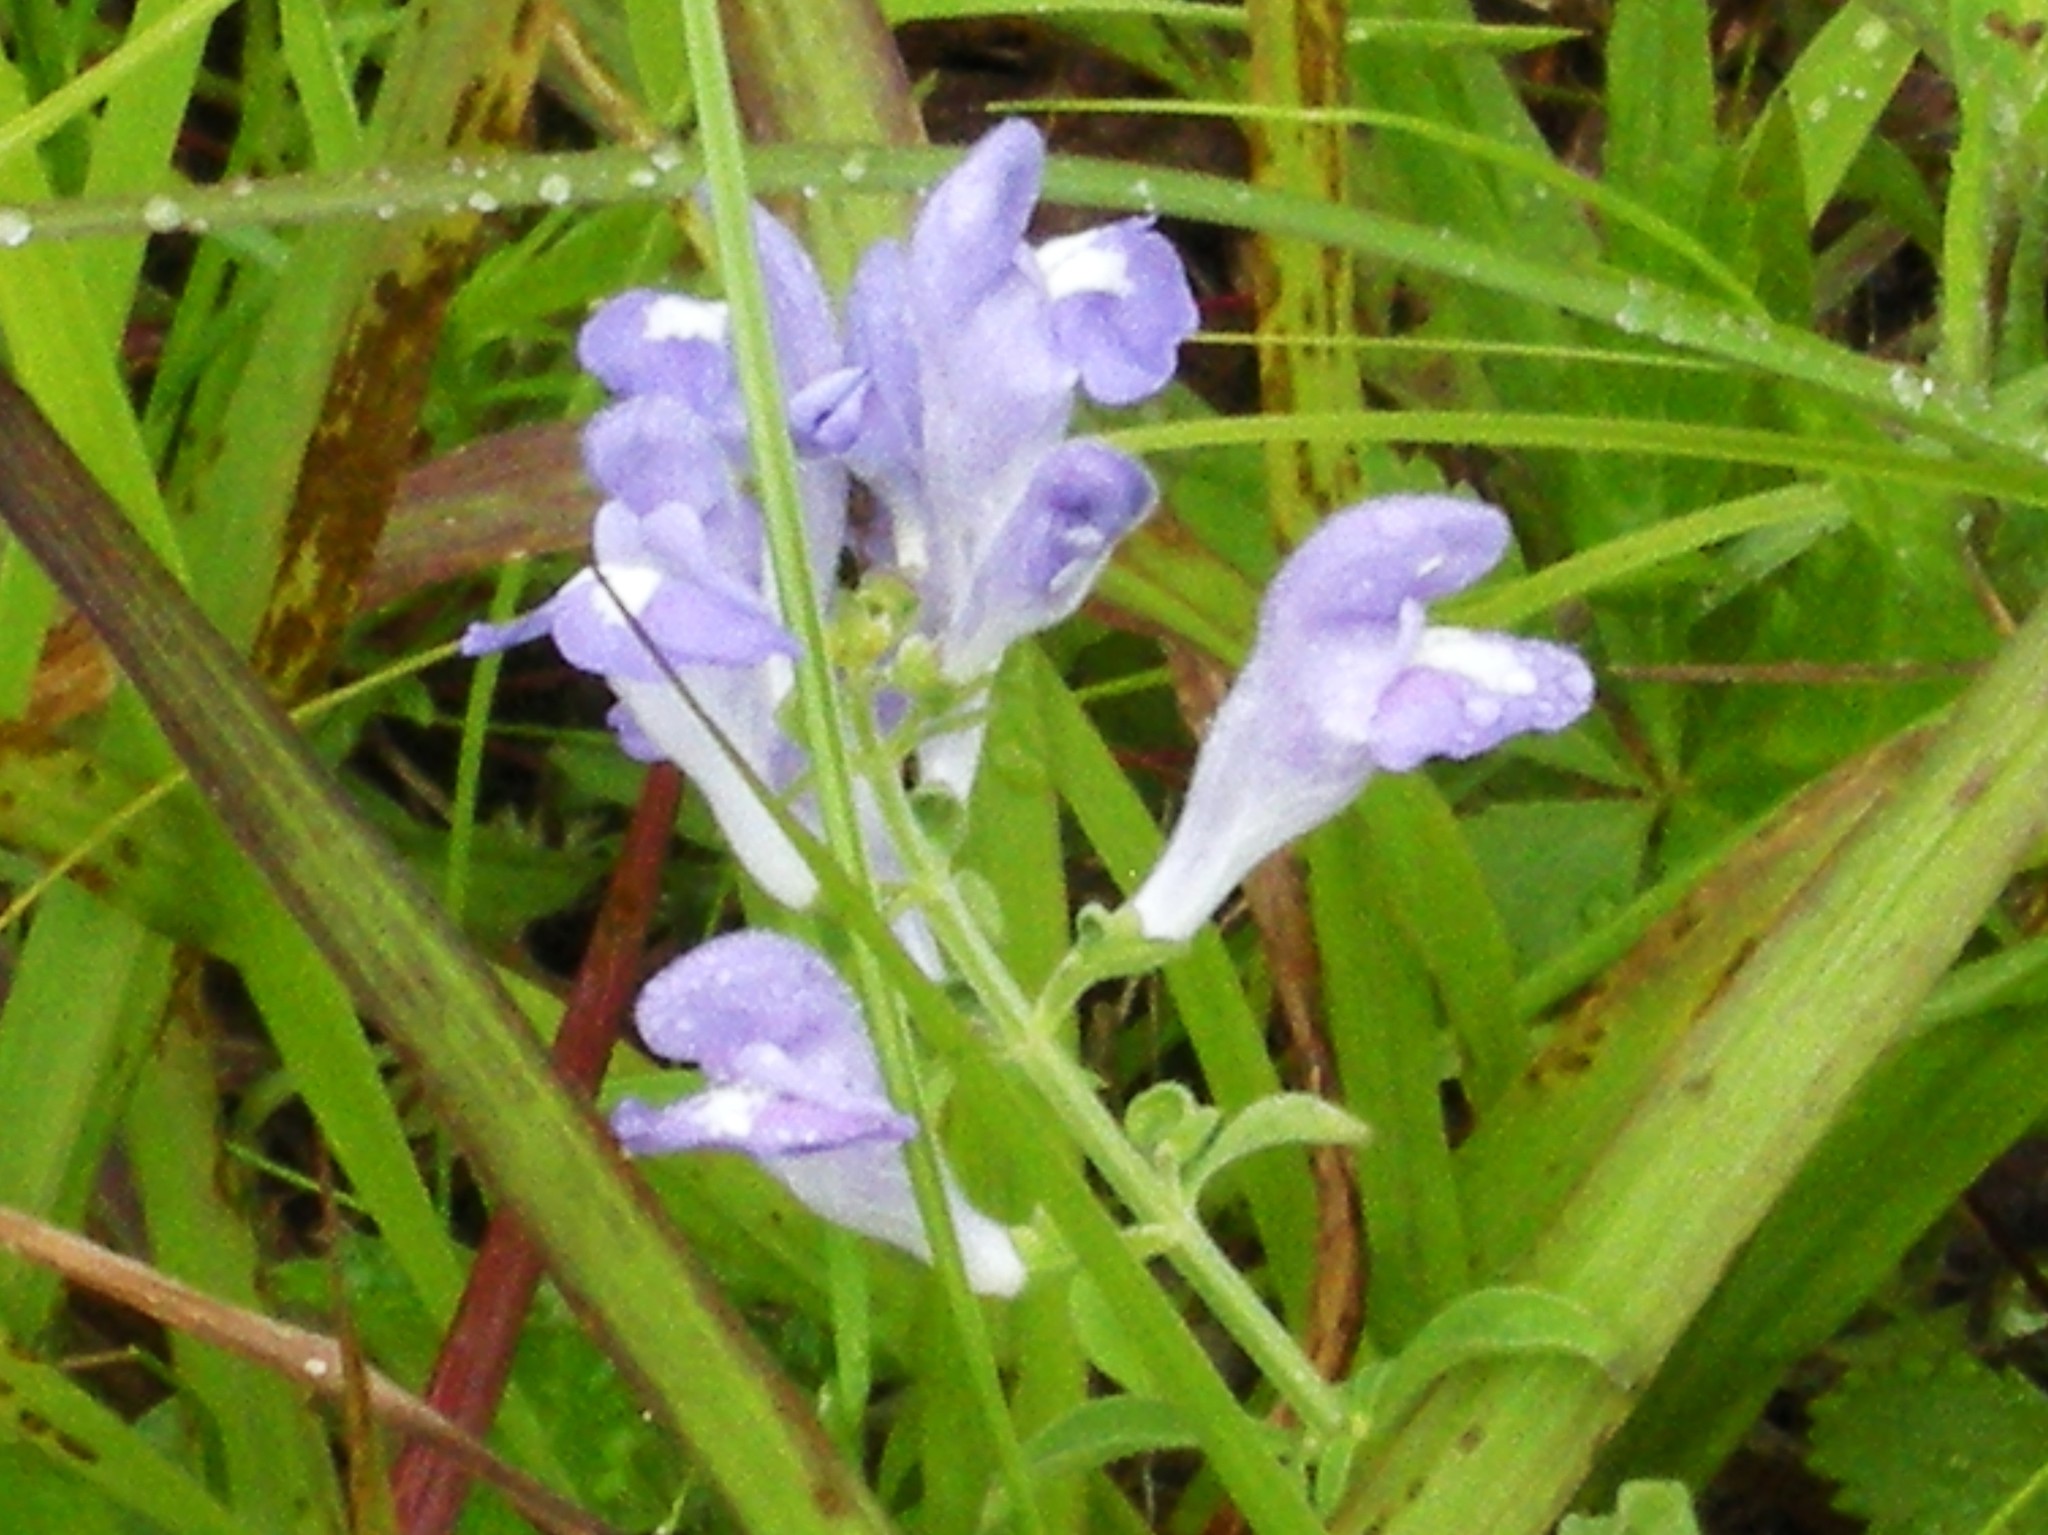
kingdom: Plantae
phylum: Tracheophyta
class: Magnoliopsida
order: Lamiales
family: Lamiaceae
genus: Scutellaria
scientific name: Scutellaria integrifolia
